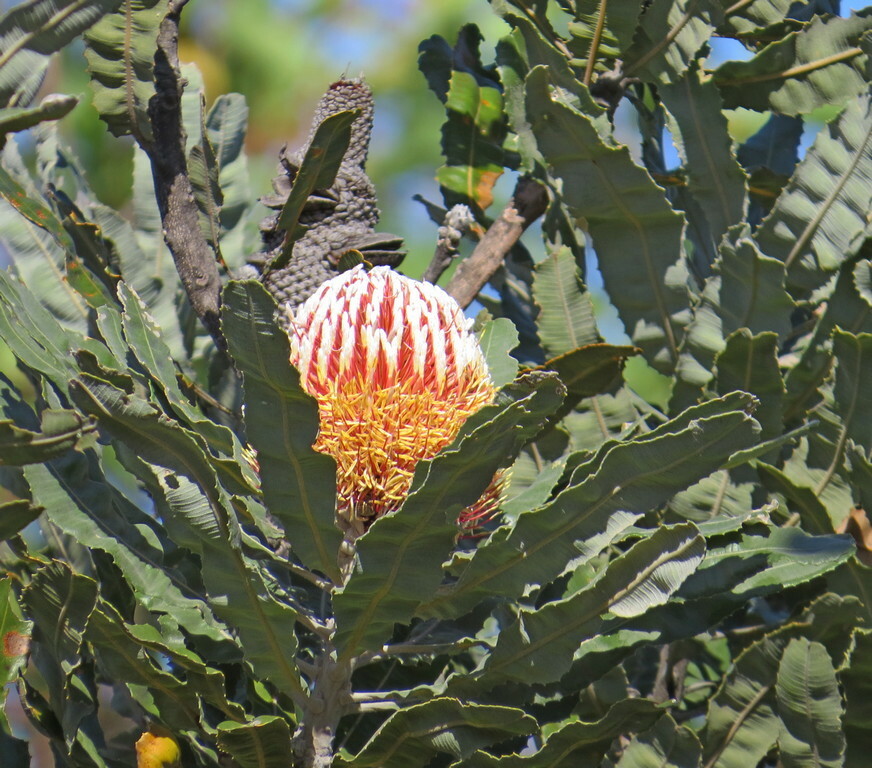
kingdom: Plantae
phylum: Tracheophyta
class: Magnoliopsida
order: Proteales
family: Proteaceae
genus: Banksia
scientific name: Banksia menziesii
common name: Menzie's banksia
